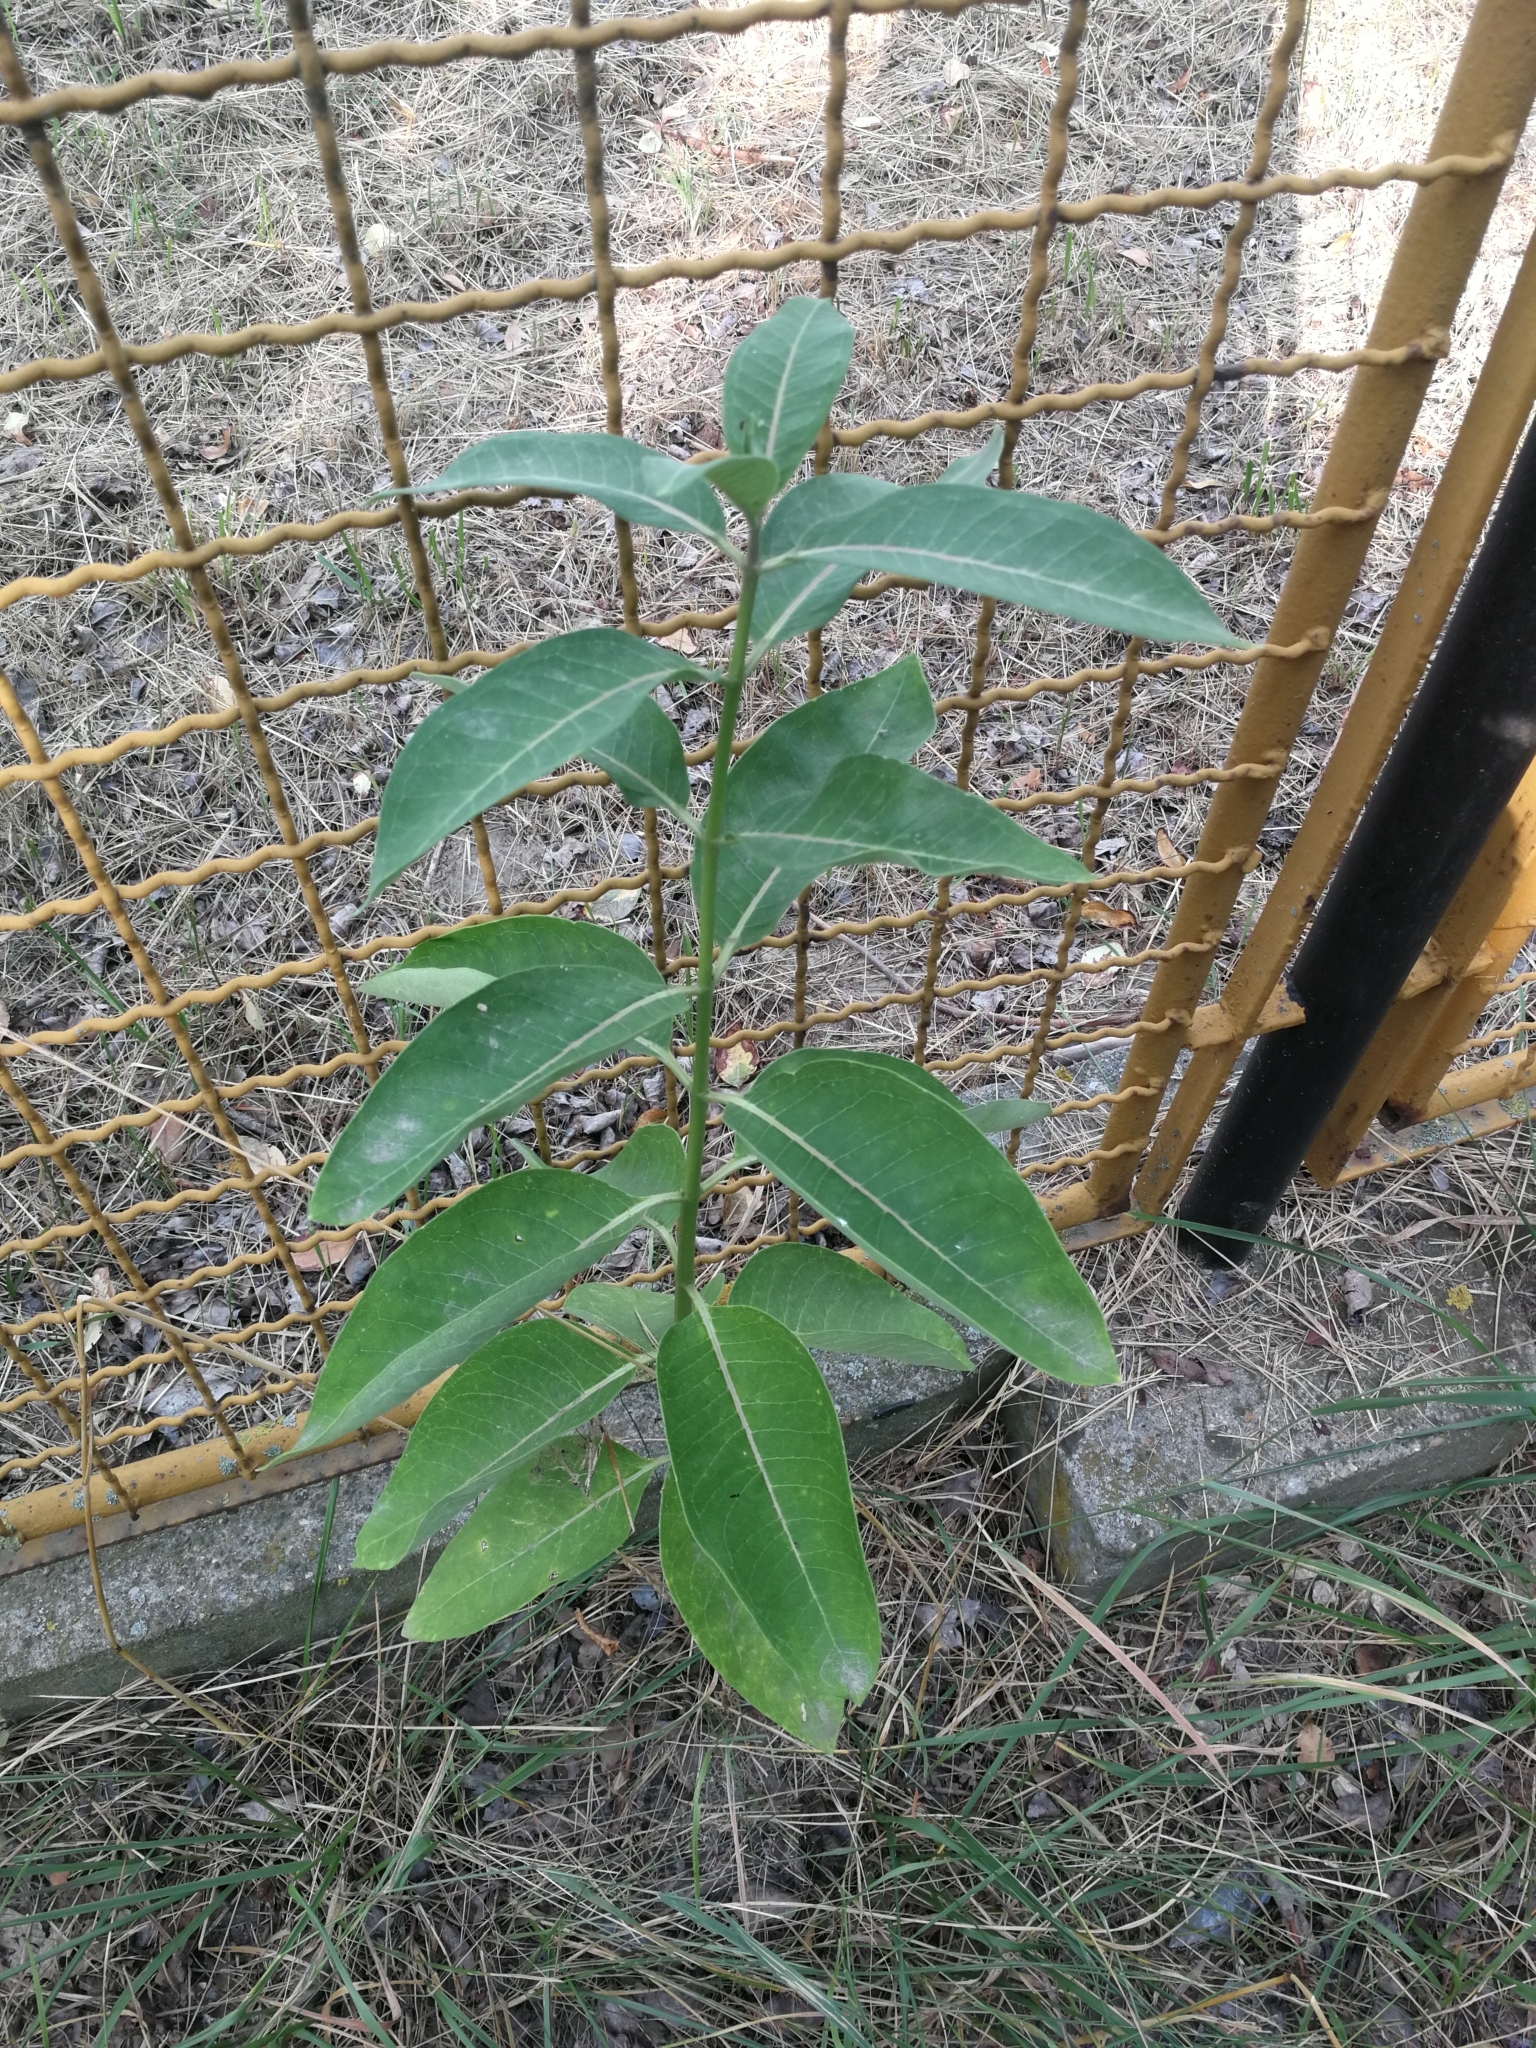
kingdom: Plantae
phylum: Tracheophyta
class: Magnoliopsida
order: Gentianales
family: Apocynaceae
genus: Asclepias
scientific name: Asclepias syriaca
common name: Common milkweed
